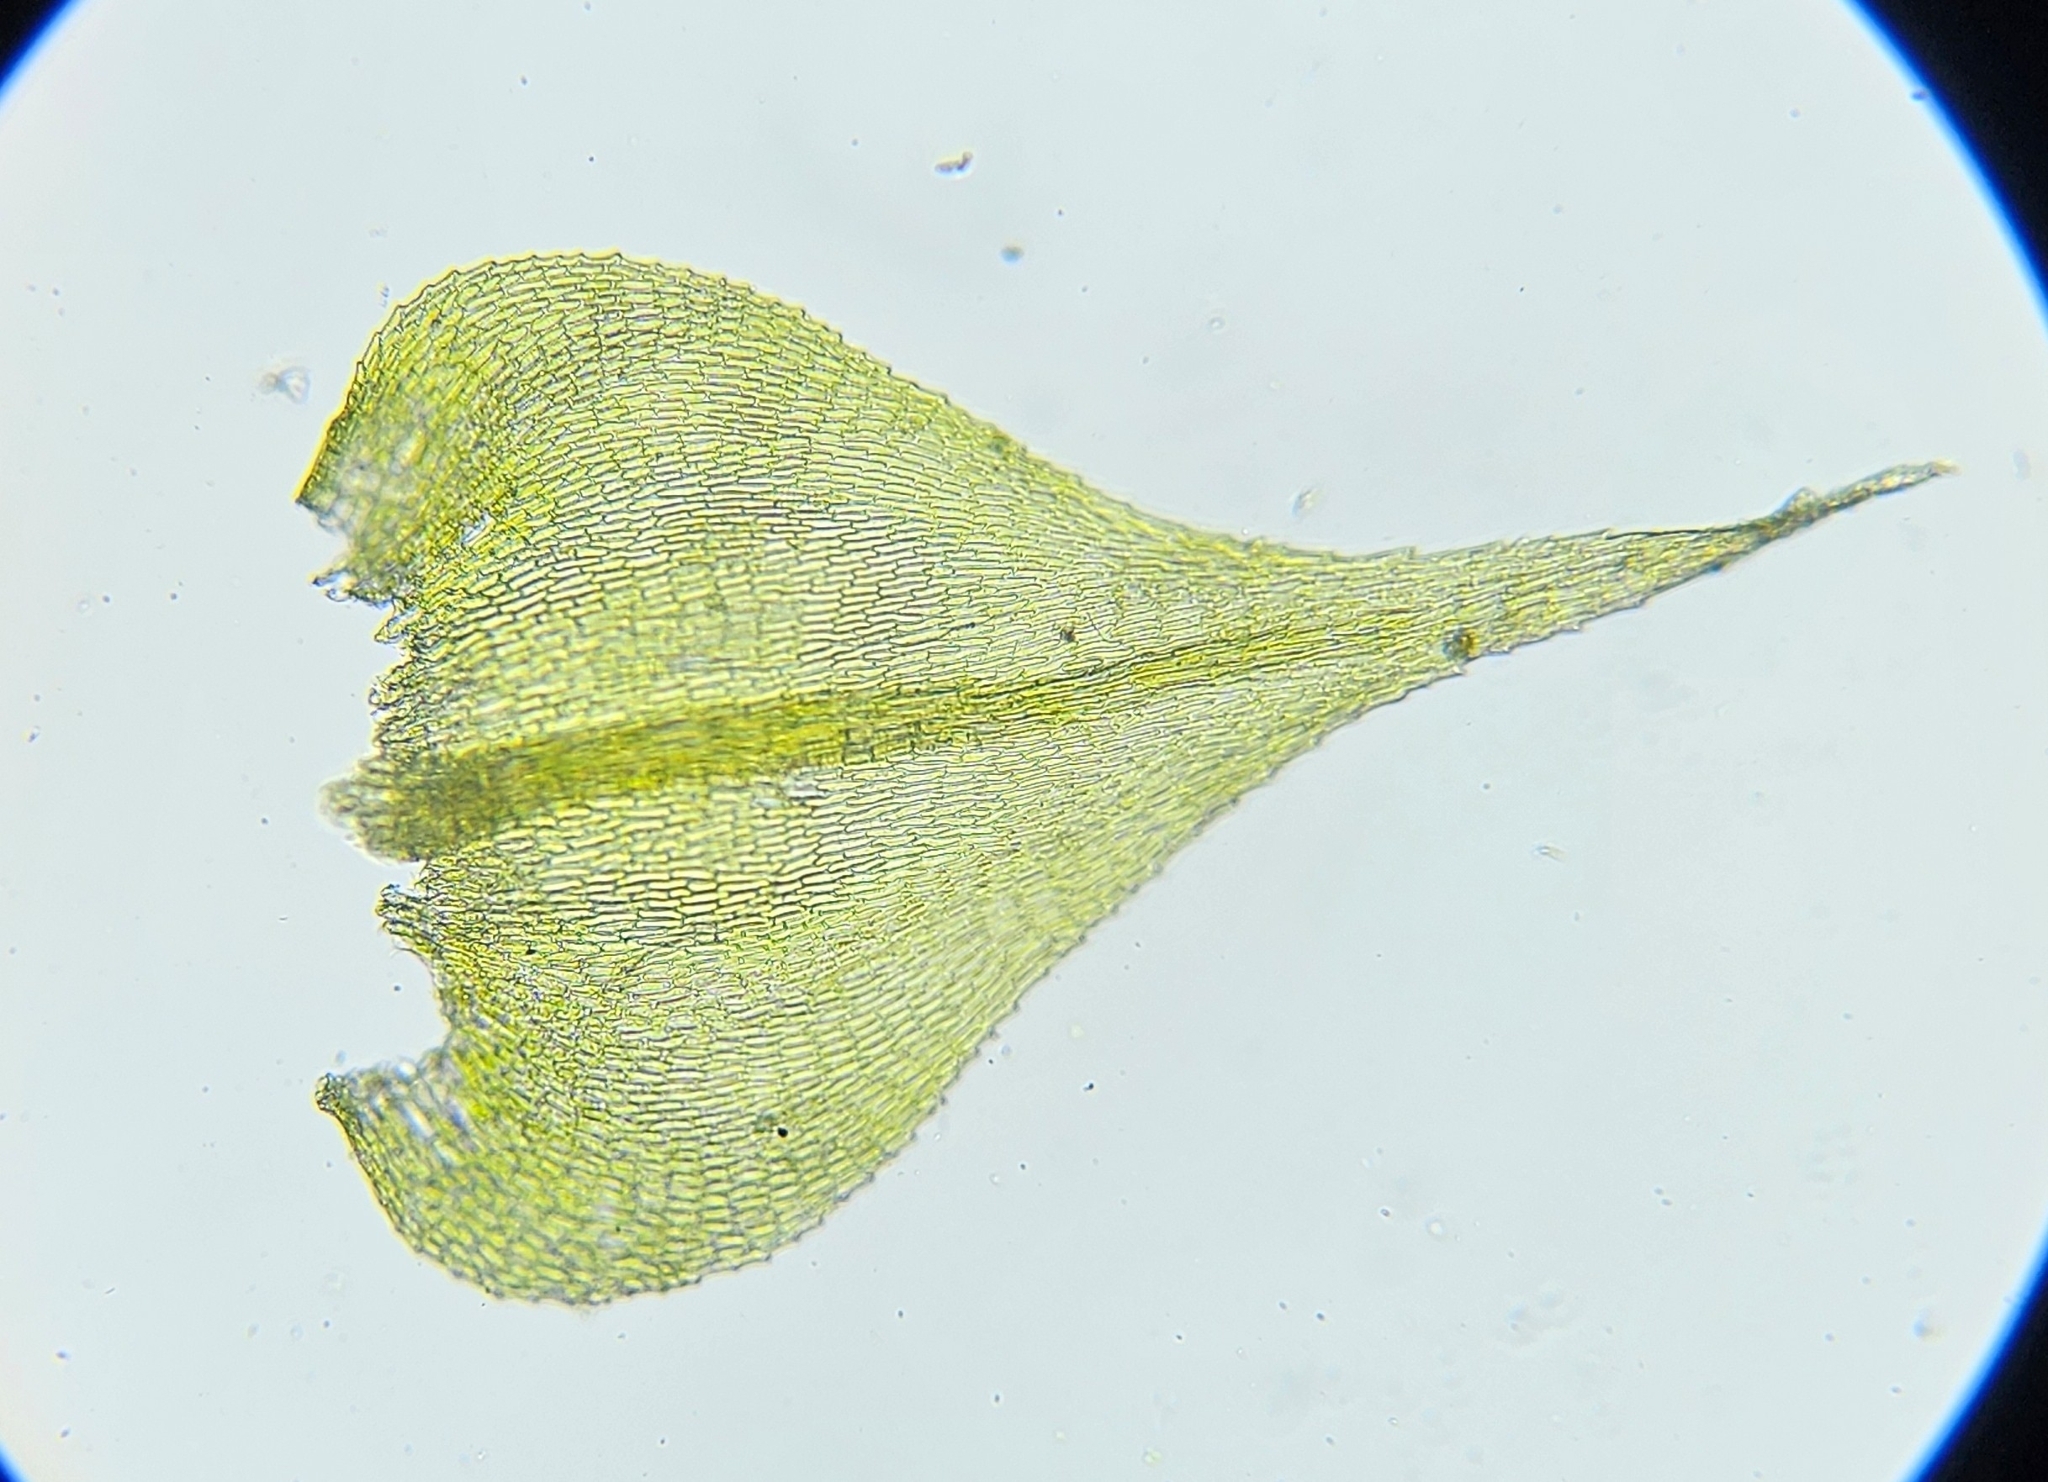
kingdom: Plantae
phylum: Bryophyta
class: Bryopsida
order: Hypnales
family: Brachytheciaceae
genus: Kindbergia
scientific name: Kindbergia praelonga
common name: Slender beaked moss
